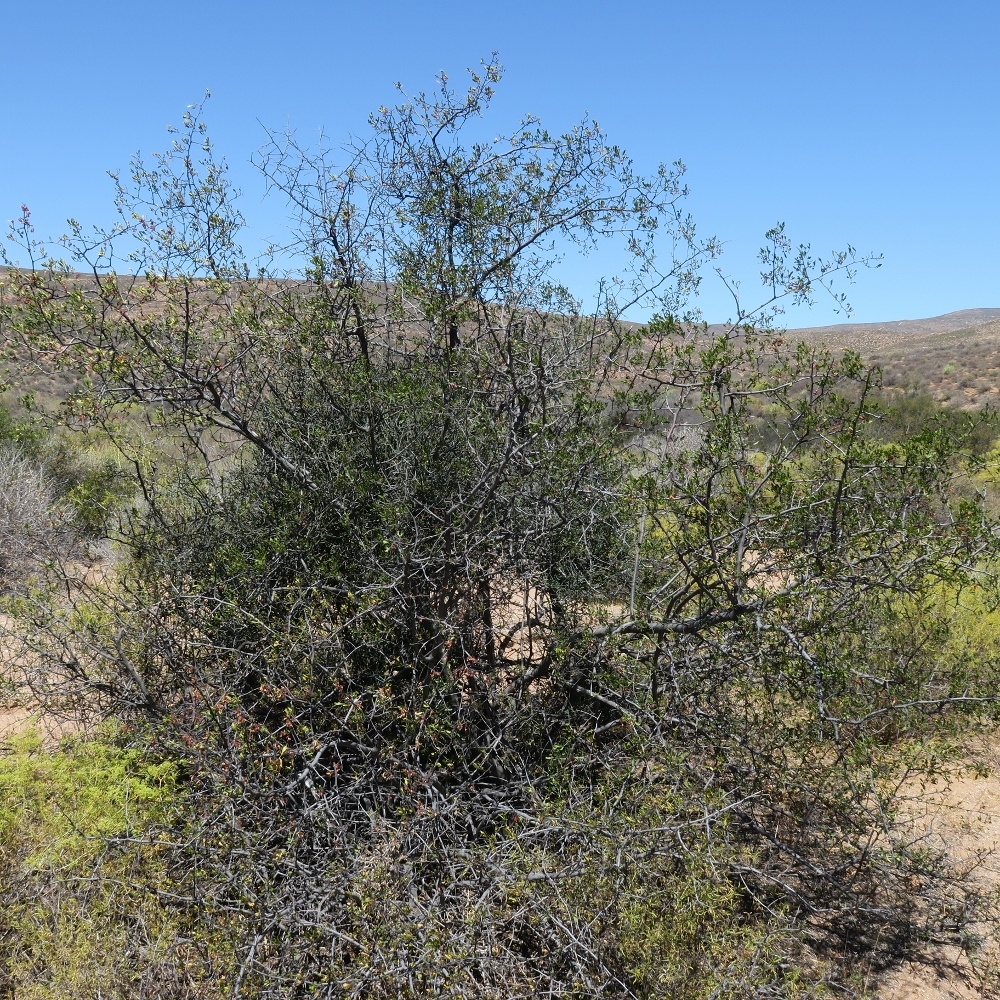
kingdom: Plantae
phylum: Tracheophyta
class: Magnoliopsida
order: Sapindales
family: Anacardiaceae
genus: Searsia
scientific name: Searsia undulata
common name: Namaqua kunibush
